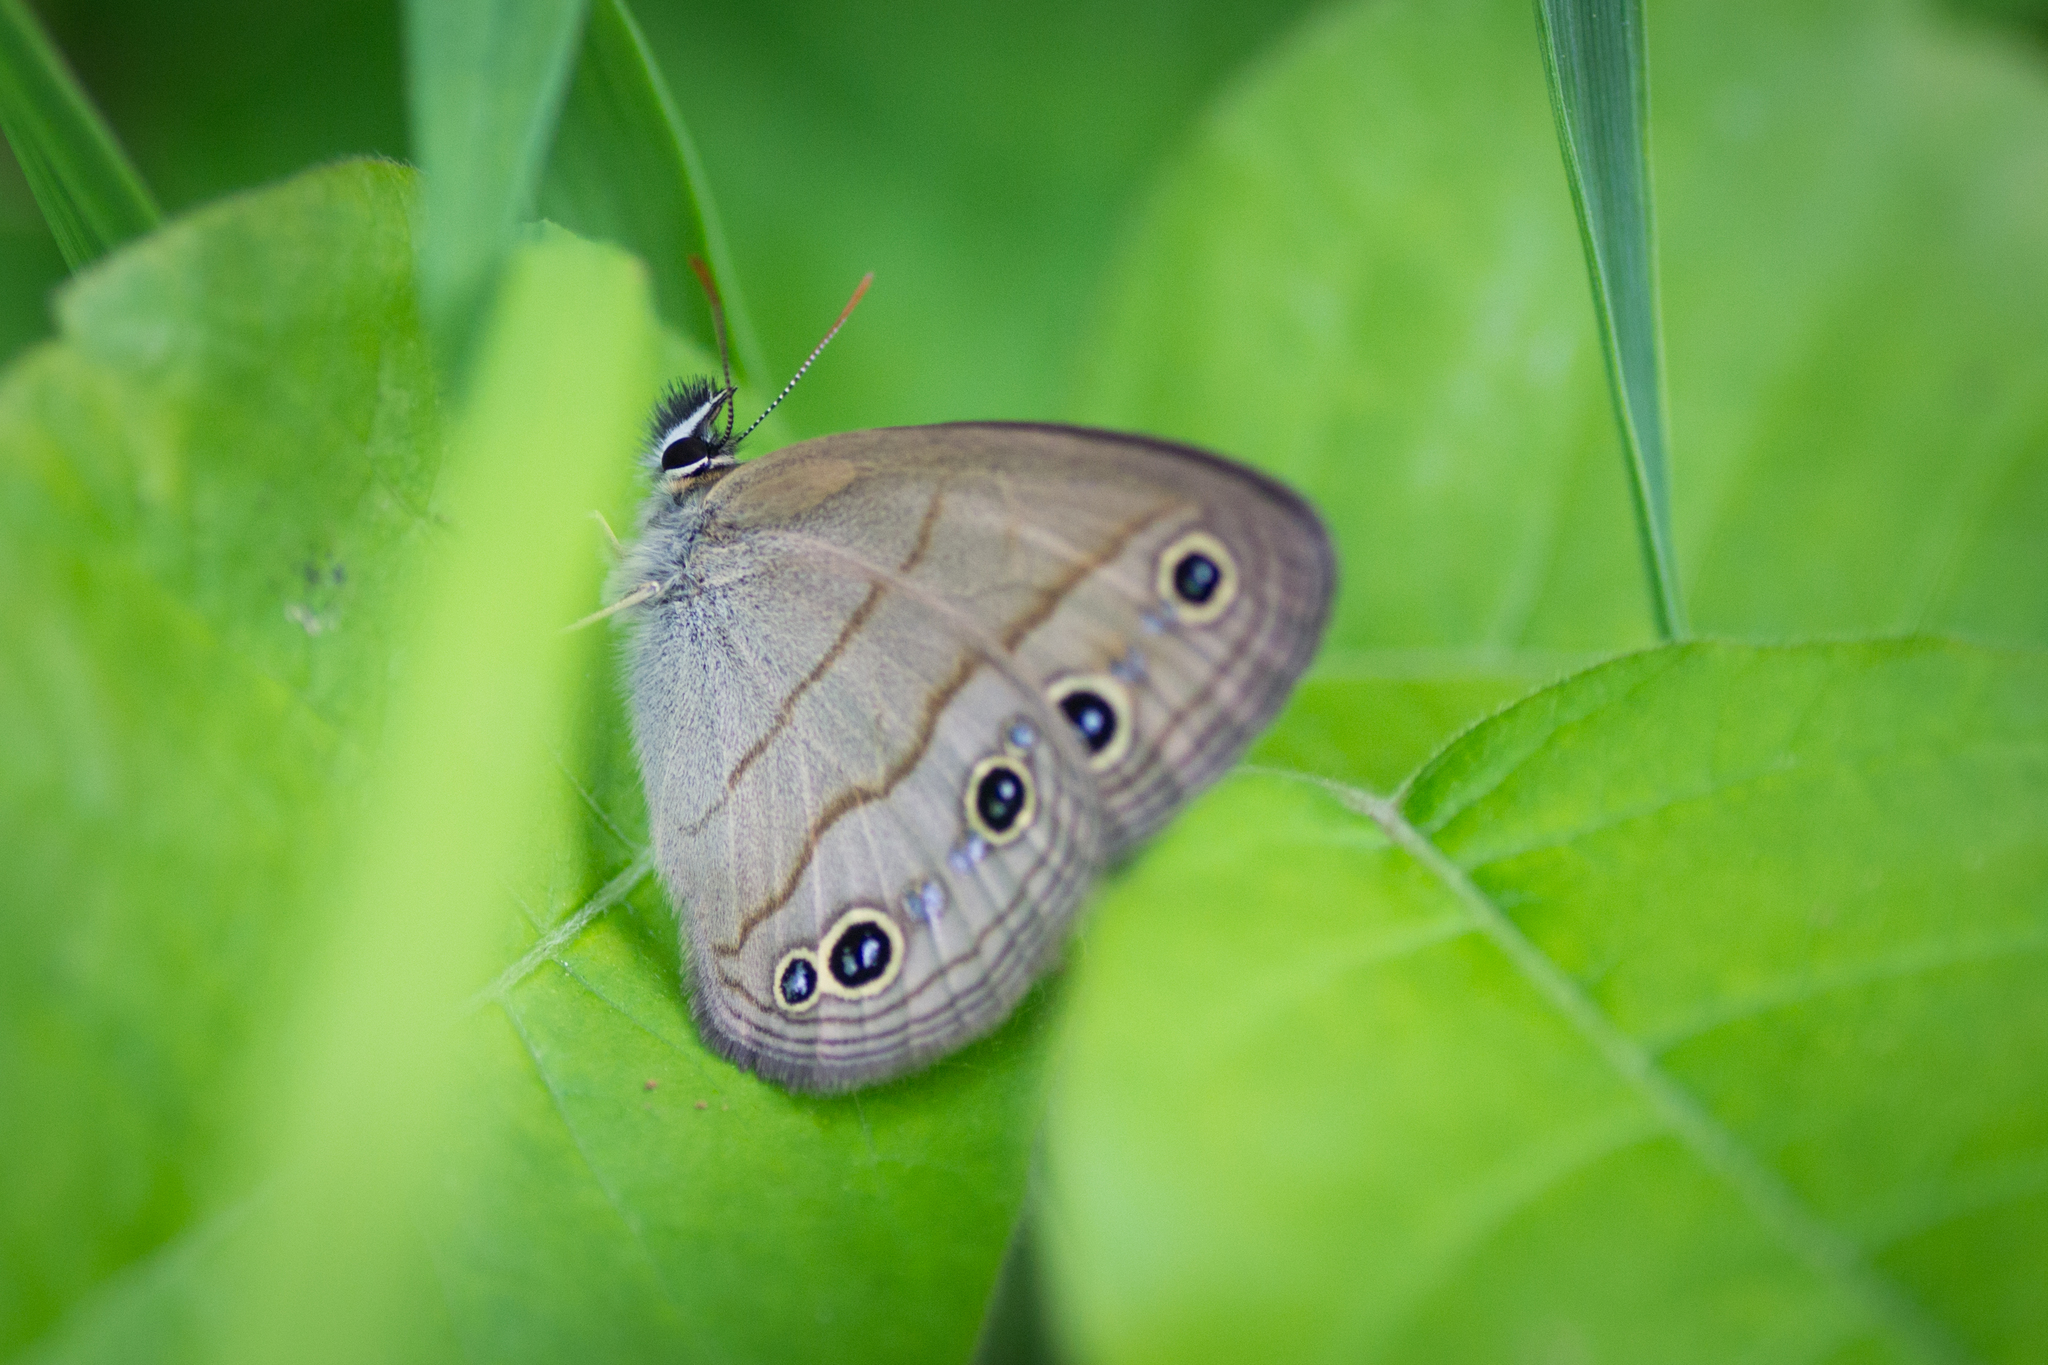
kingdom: Animalia
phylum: Arthropoda
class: Insecta
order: Lepidoptera
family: Nymphalidae
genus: Euptychia
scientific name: Euptychia cymela
